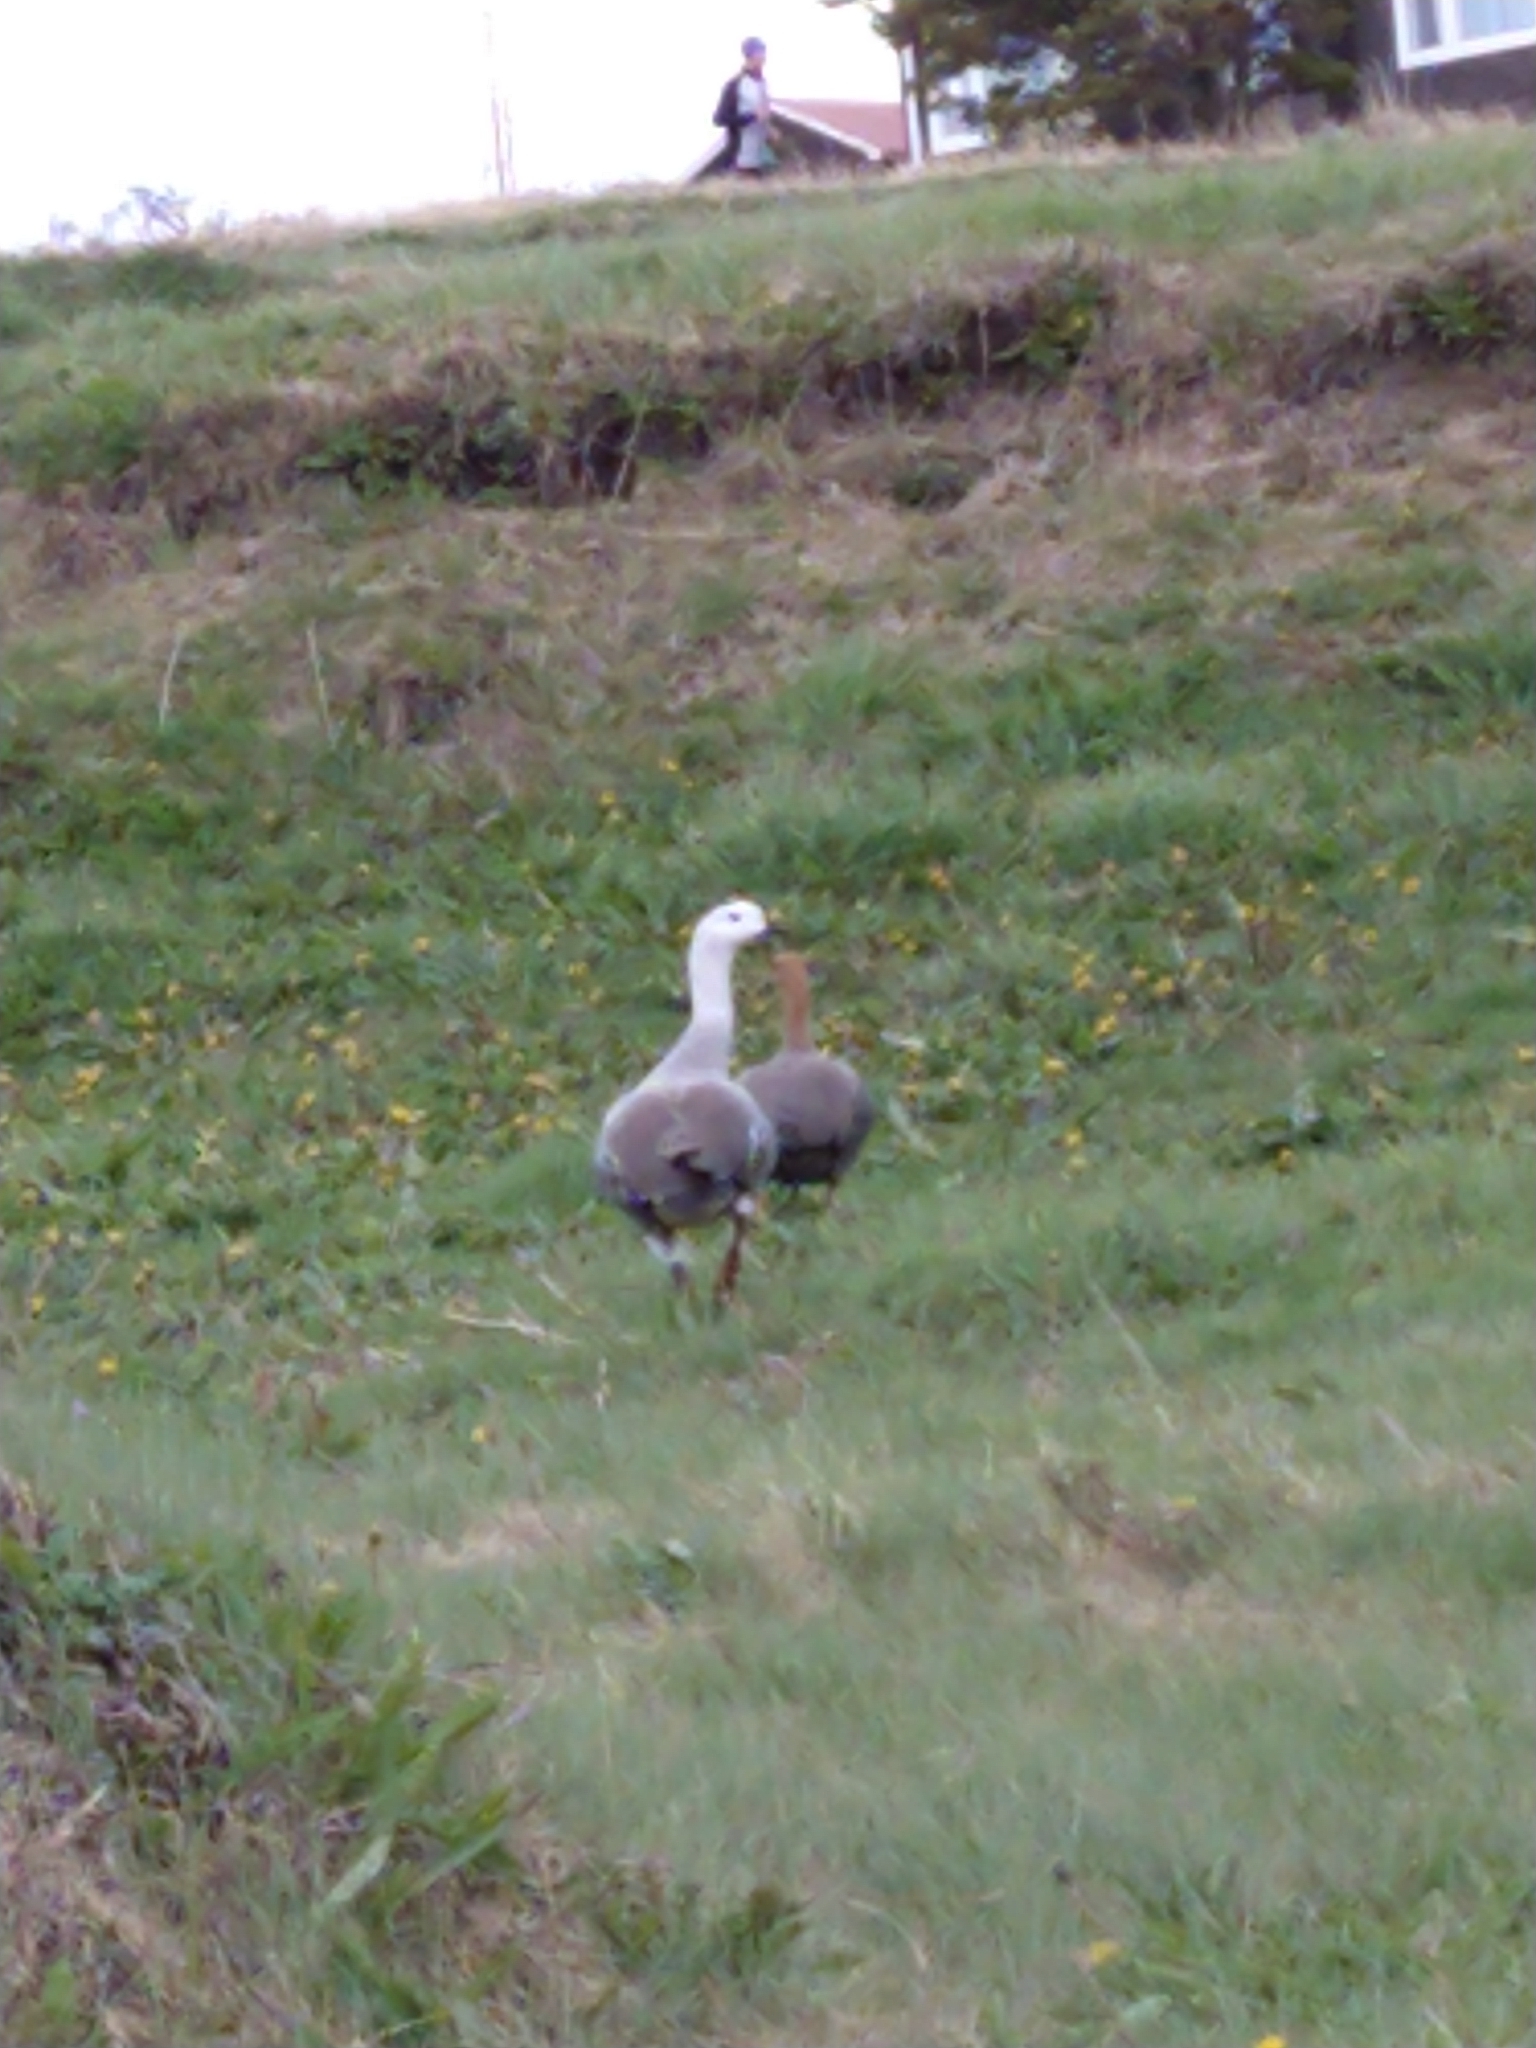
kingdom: Animalia
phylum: Chordata
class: Aves
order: Anseriformes
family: Anatidae
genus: Chloephaga
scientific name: Chloephaga picta
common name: Upland goose
